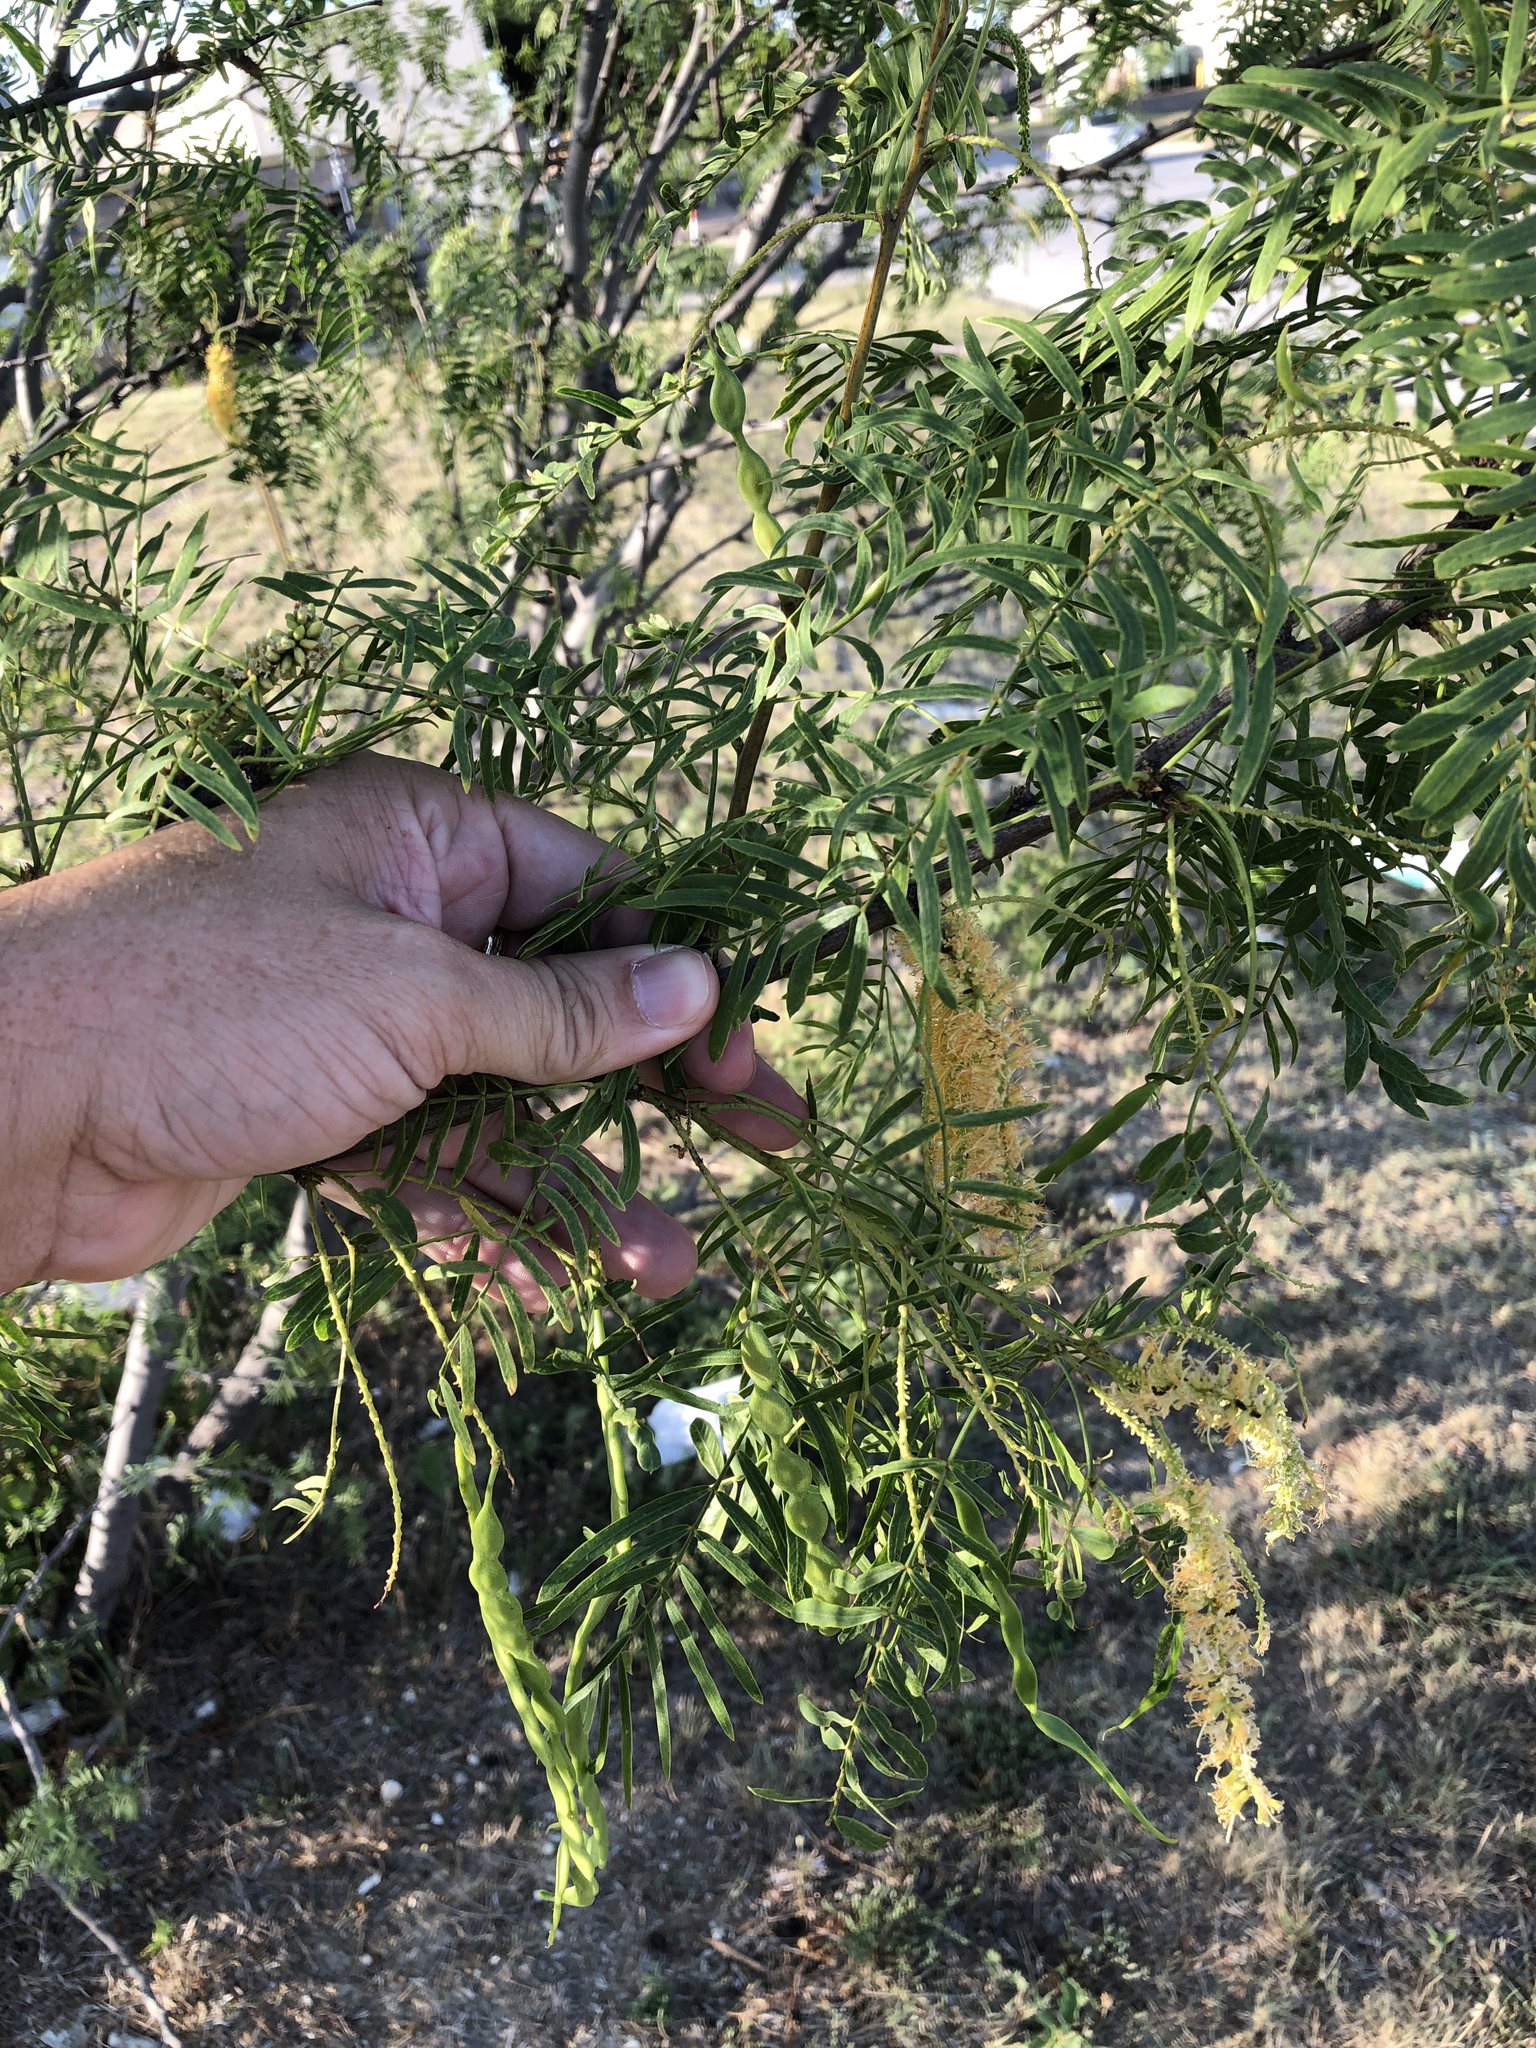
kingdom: Plantae
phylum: Tracheophyta
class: Magnoliopsida
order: Fabales
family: Fabaceae
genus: Prosopis
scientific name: Prosopis glandulosa
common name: Honey mesquite
